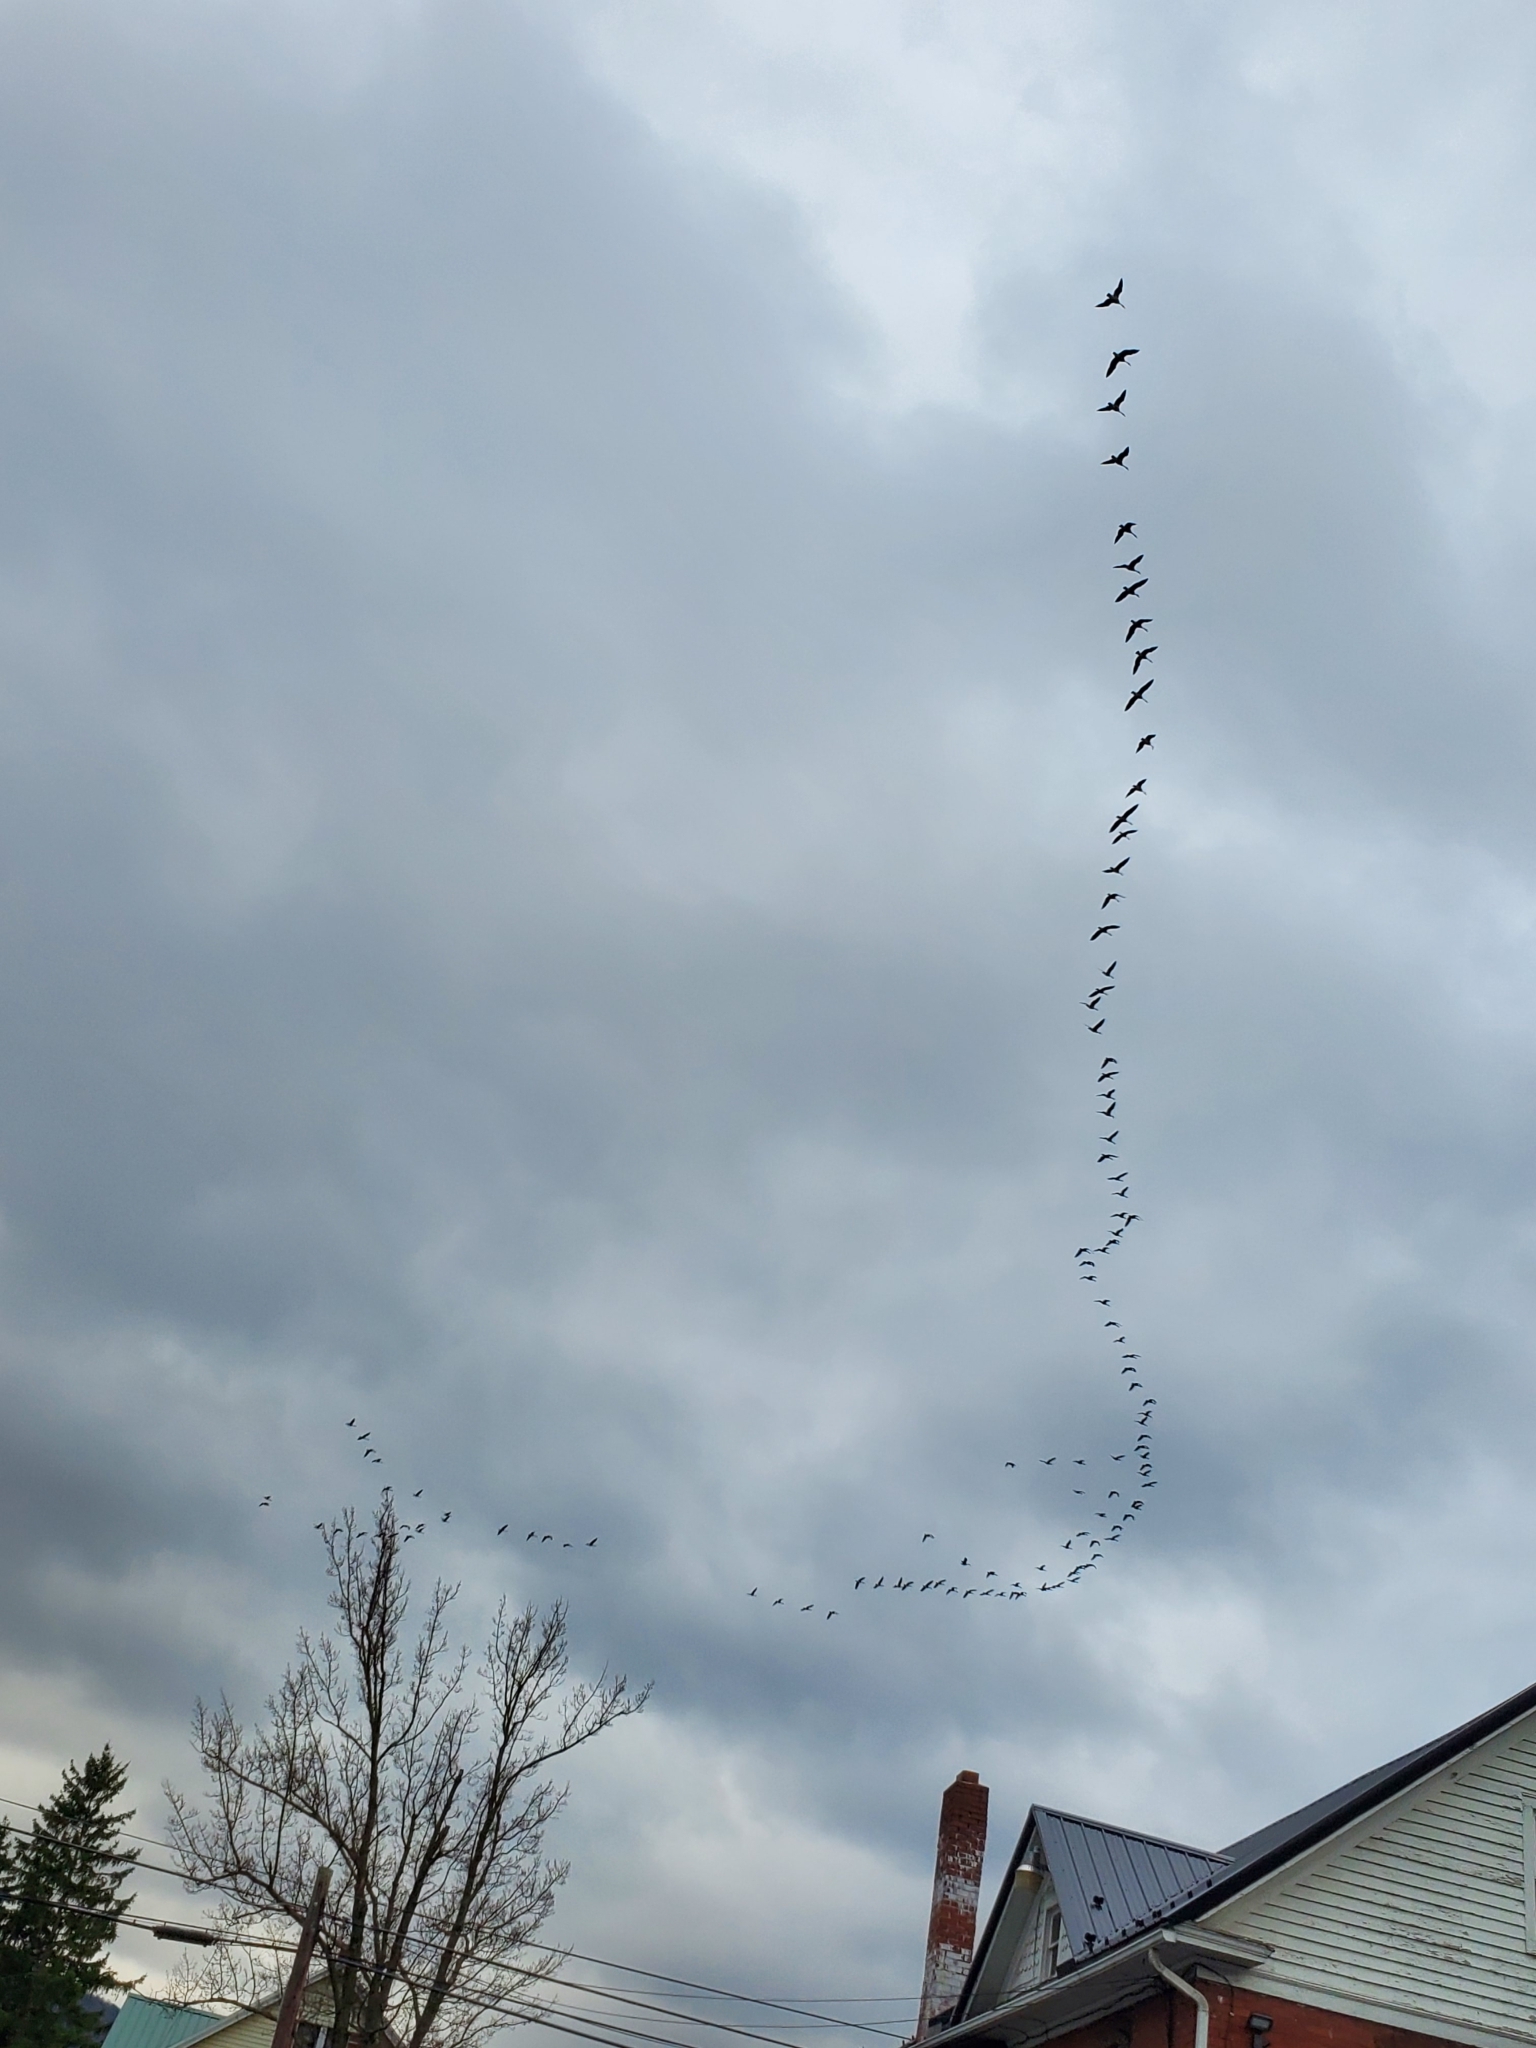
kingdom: Animalia
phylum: Chordata
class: Aves
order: Anseriformes
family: Anatidae
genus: Branta
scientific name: Branta canadensis
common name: Canada goose
